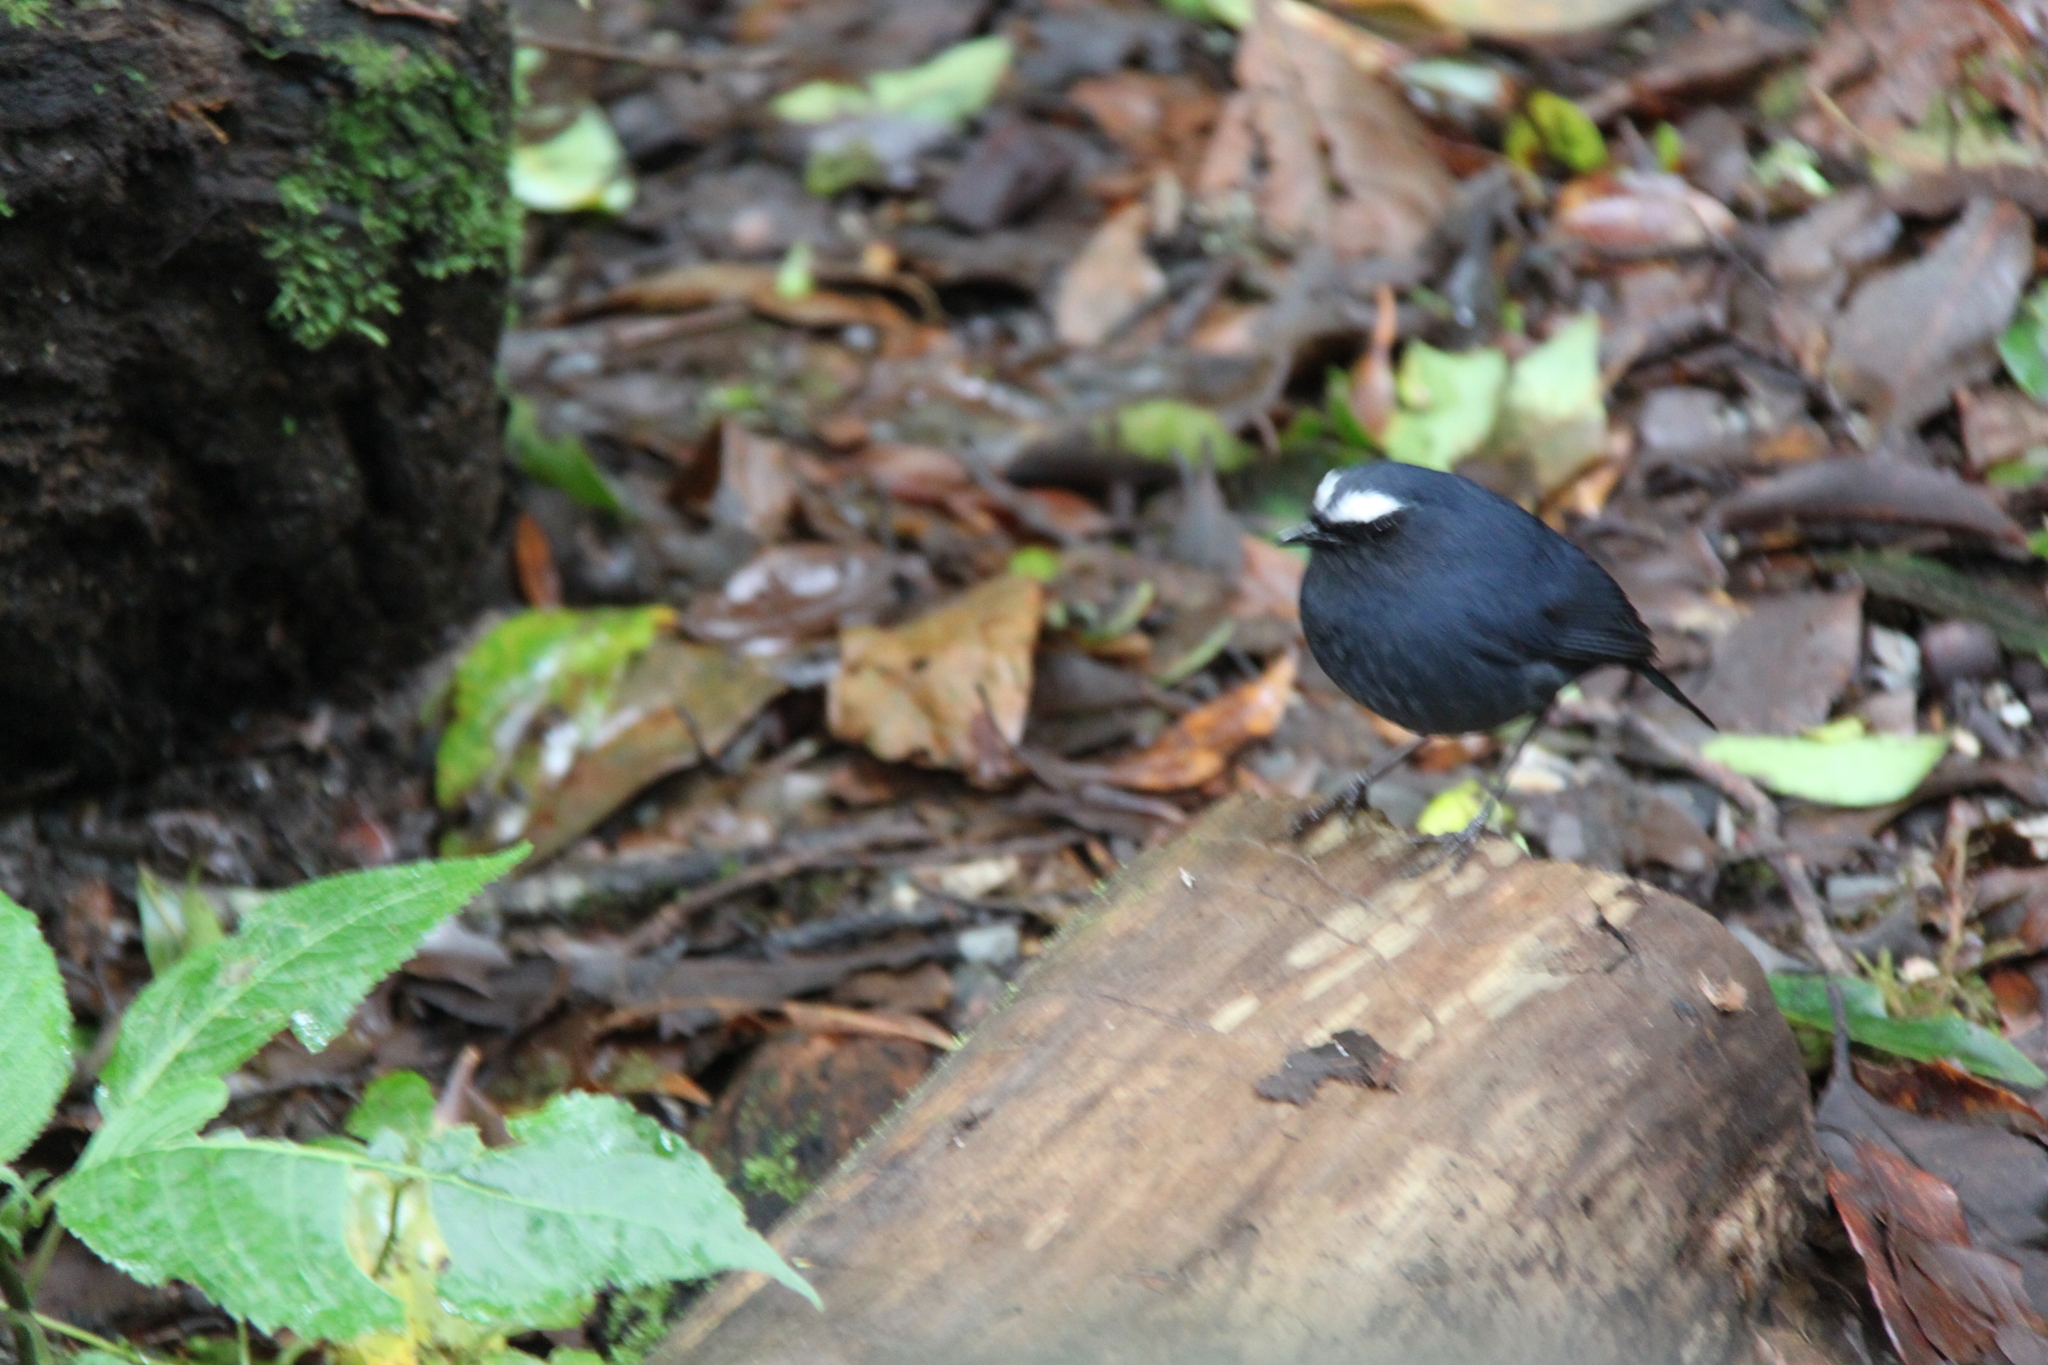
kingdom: Animalia
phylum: Chordata
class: Aves
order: Passeriformes
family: Muscicapidae
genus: Brachypteryx
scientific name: Brachypteryx montana
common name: White-browed shortwing
